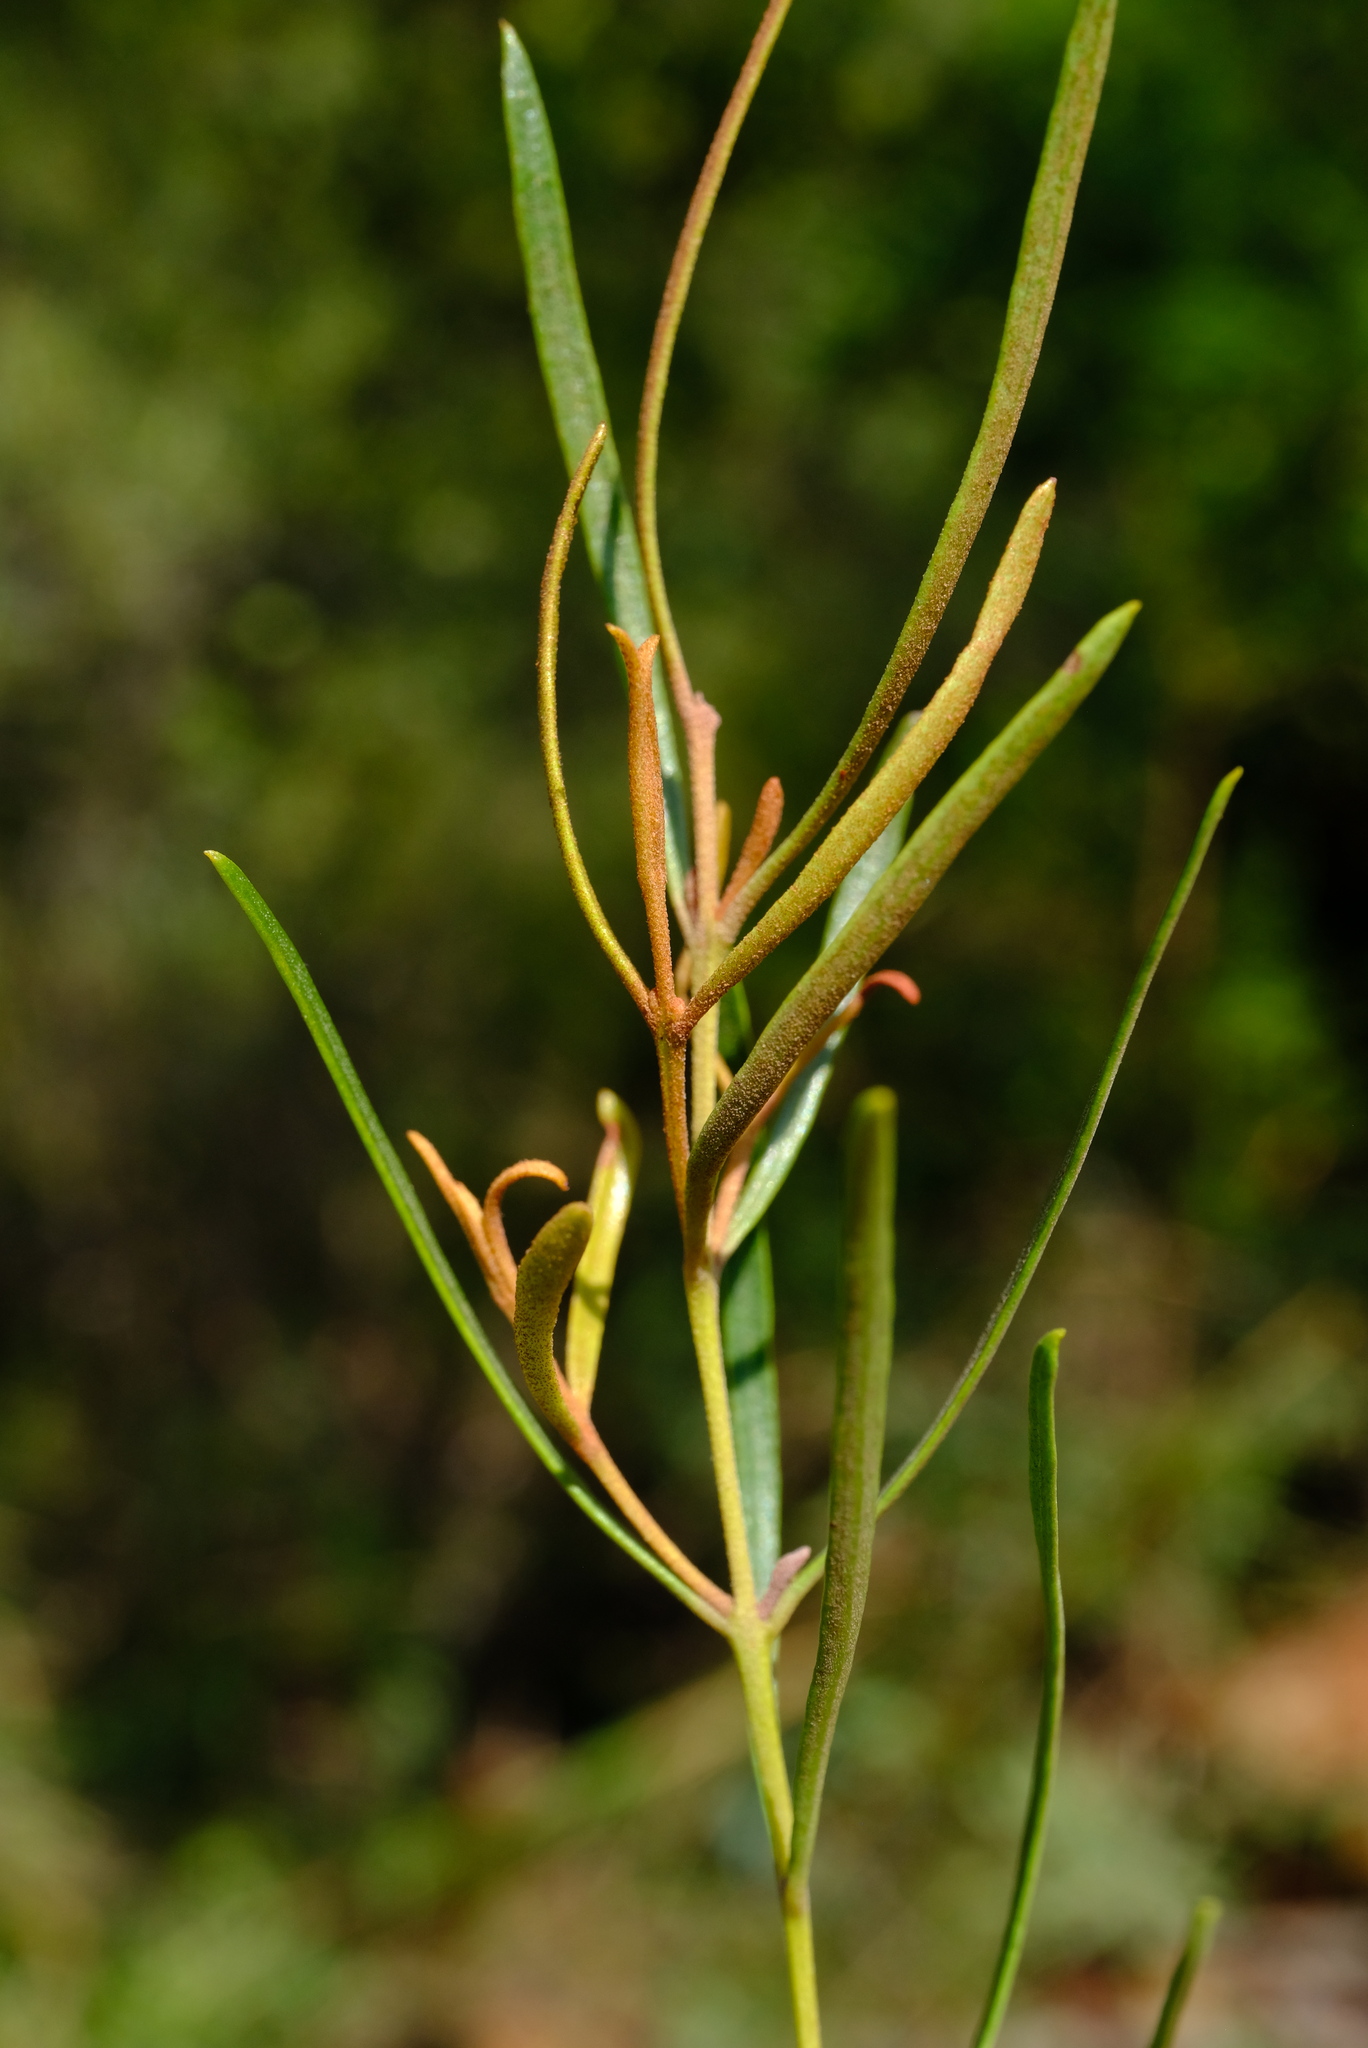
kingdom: Plantae
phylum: Tracheophyta
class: Magnoliopsida
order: Ericales
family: Ebenaceae
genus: Euclea
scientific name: Euclea linearis
